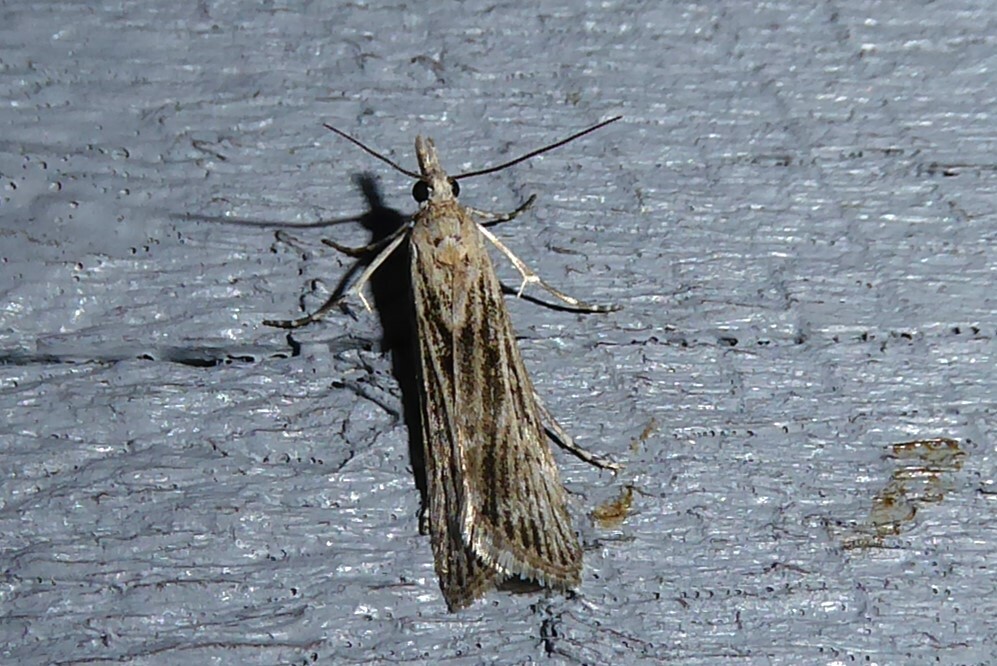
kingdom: Animalia
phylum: Arthropoda
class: Insecta
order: Lepidoptera
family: Crambidae
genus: Eudonia
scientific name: Eudonia atmogramma
